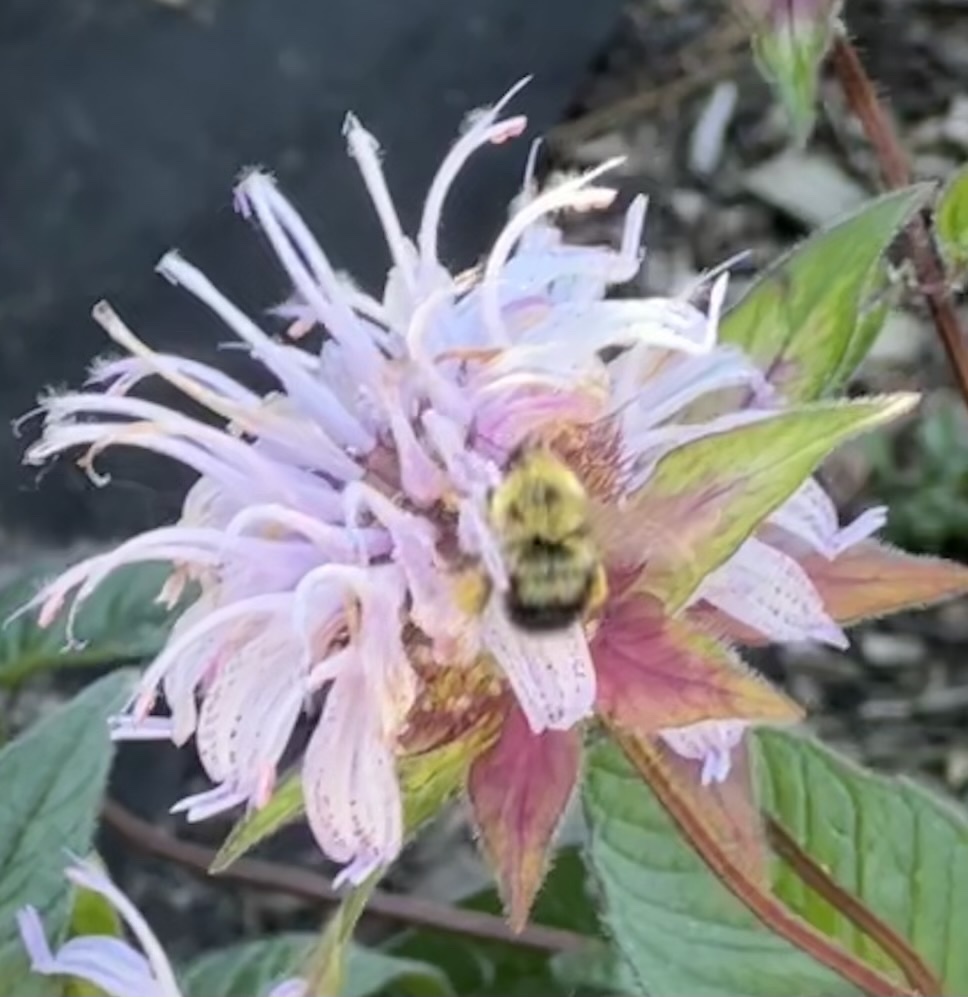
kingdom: Animalia
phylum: Arthropoda
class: Insecta
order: Hymenoptera
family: Apidae
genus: Bombus
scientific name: Bombus bimaculatus
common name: Two-spotted bumble bee
